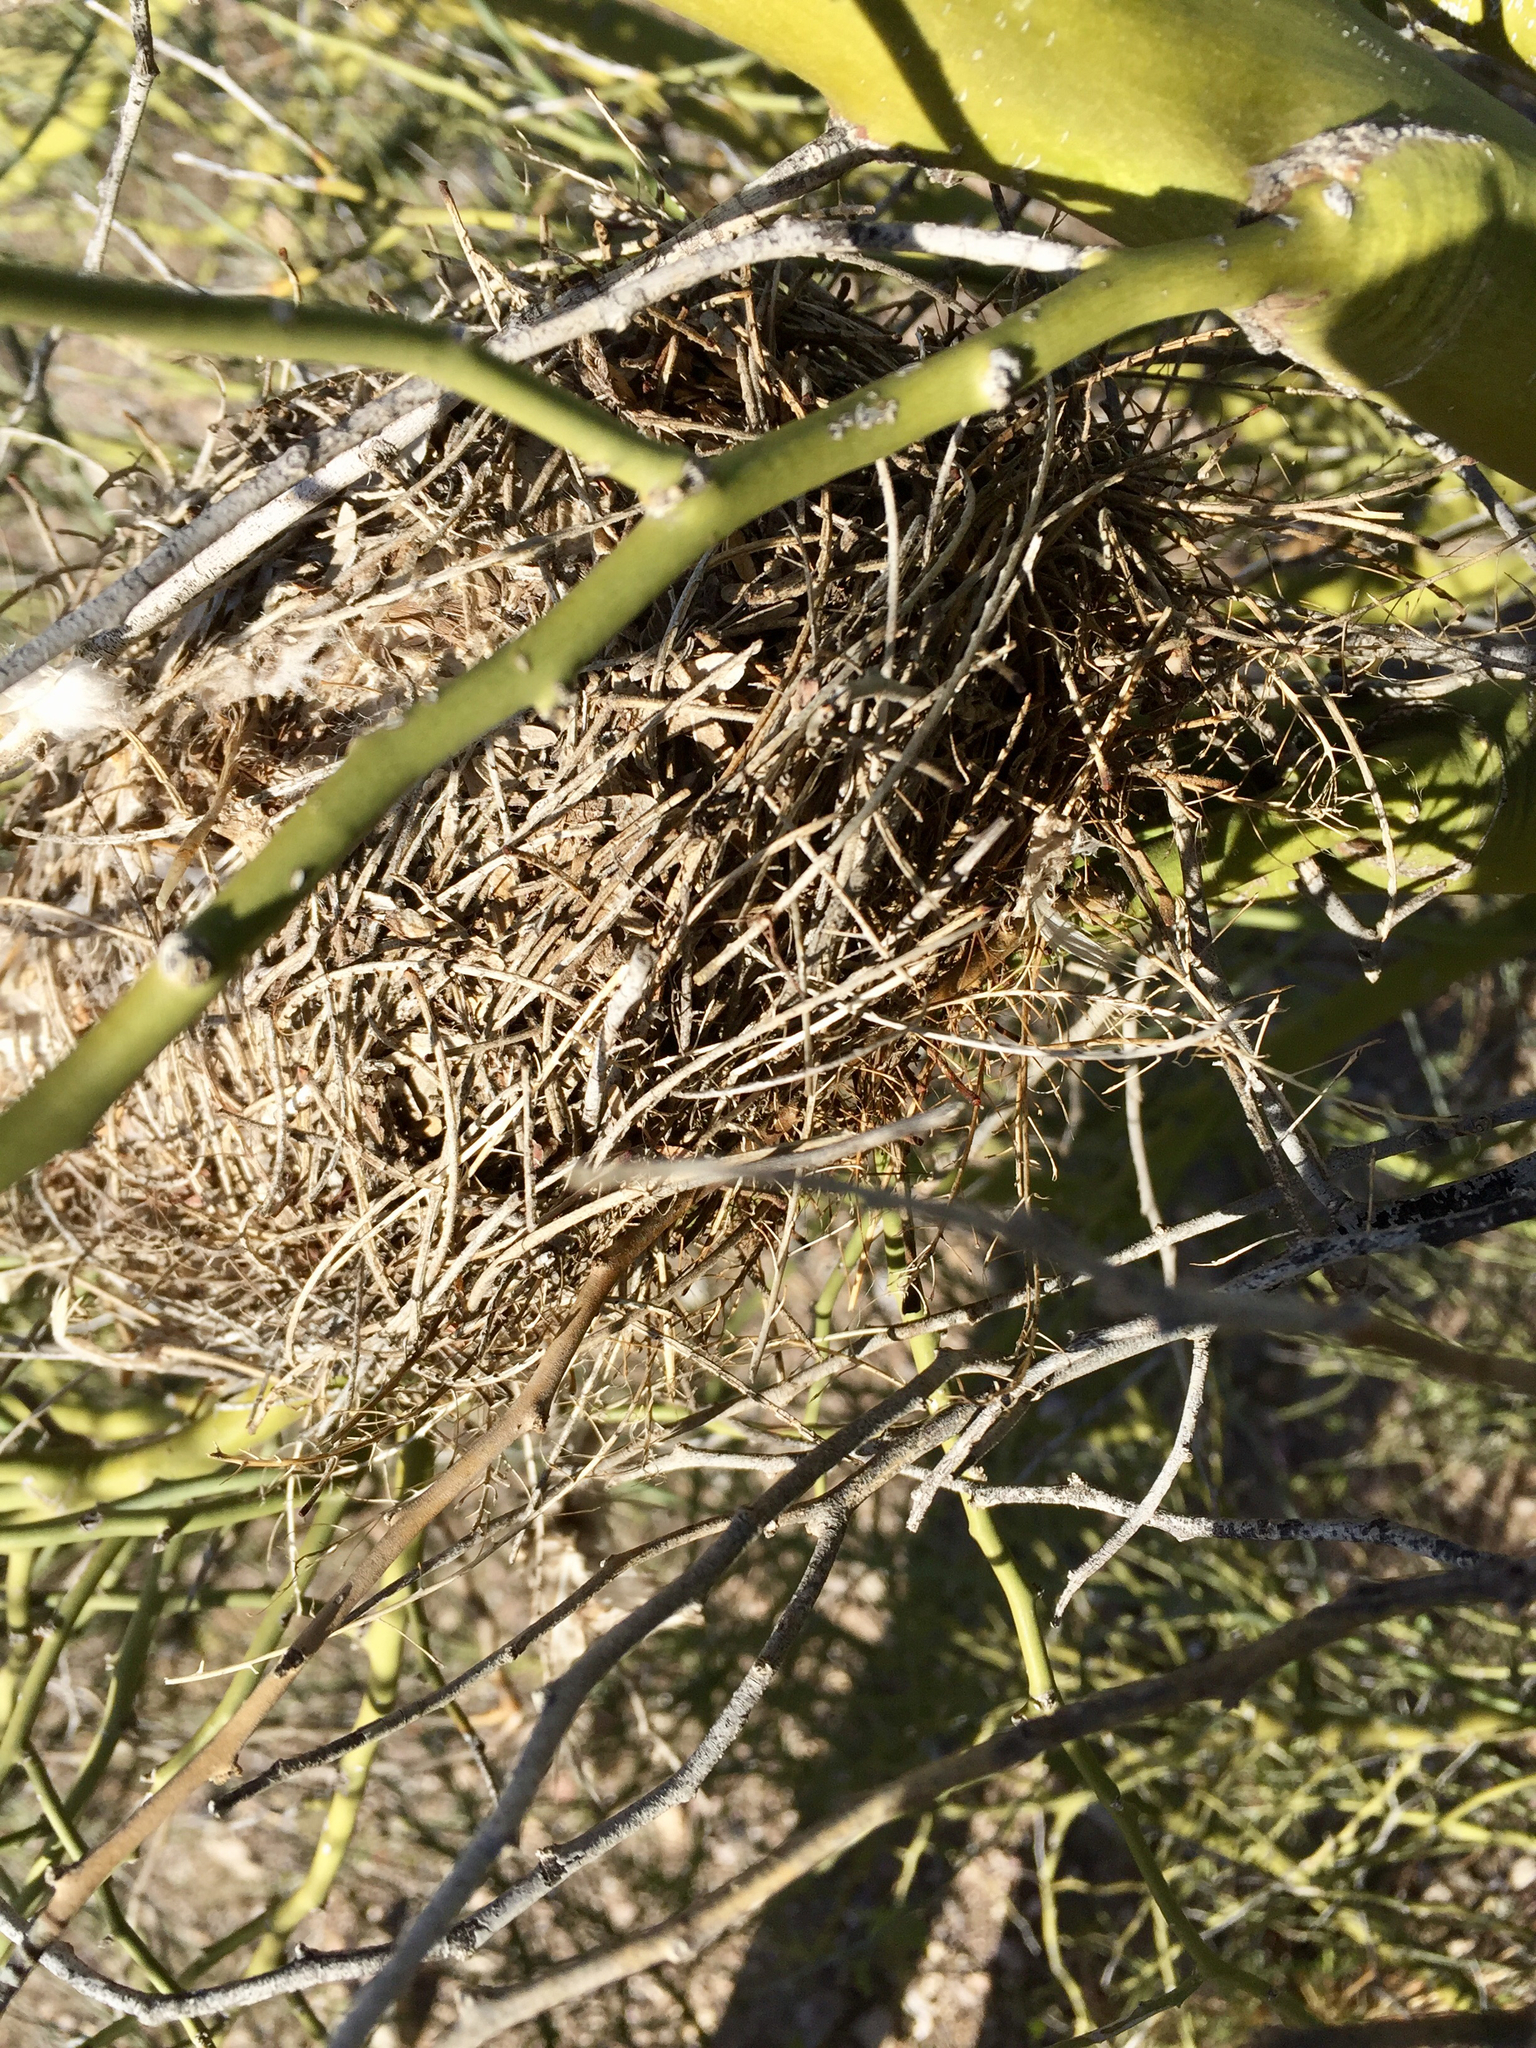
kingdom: Animalia
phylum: Chordata
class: Aves
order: Passeriformes
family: Remizidae
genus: Auriparus
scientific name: Auriparus flaviceps
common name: Verdin
